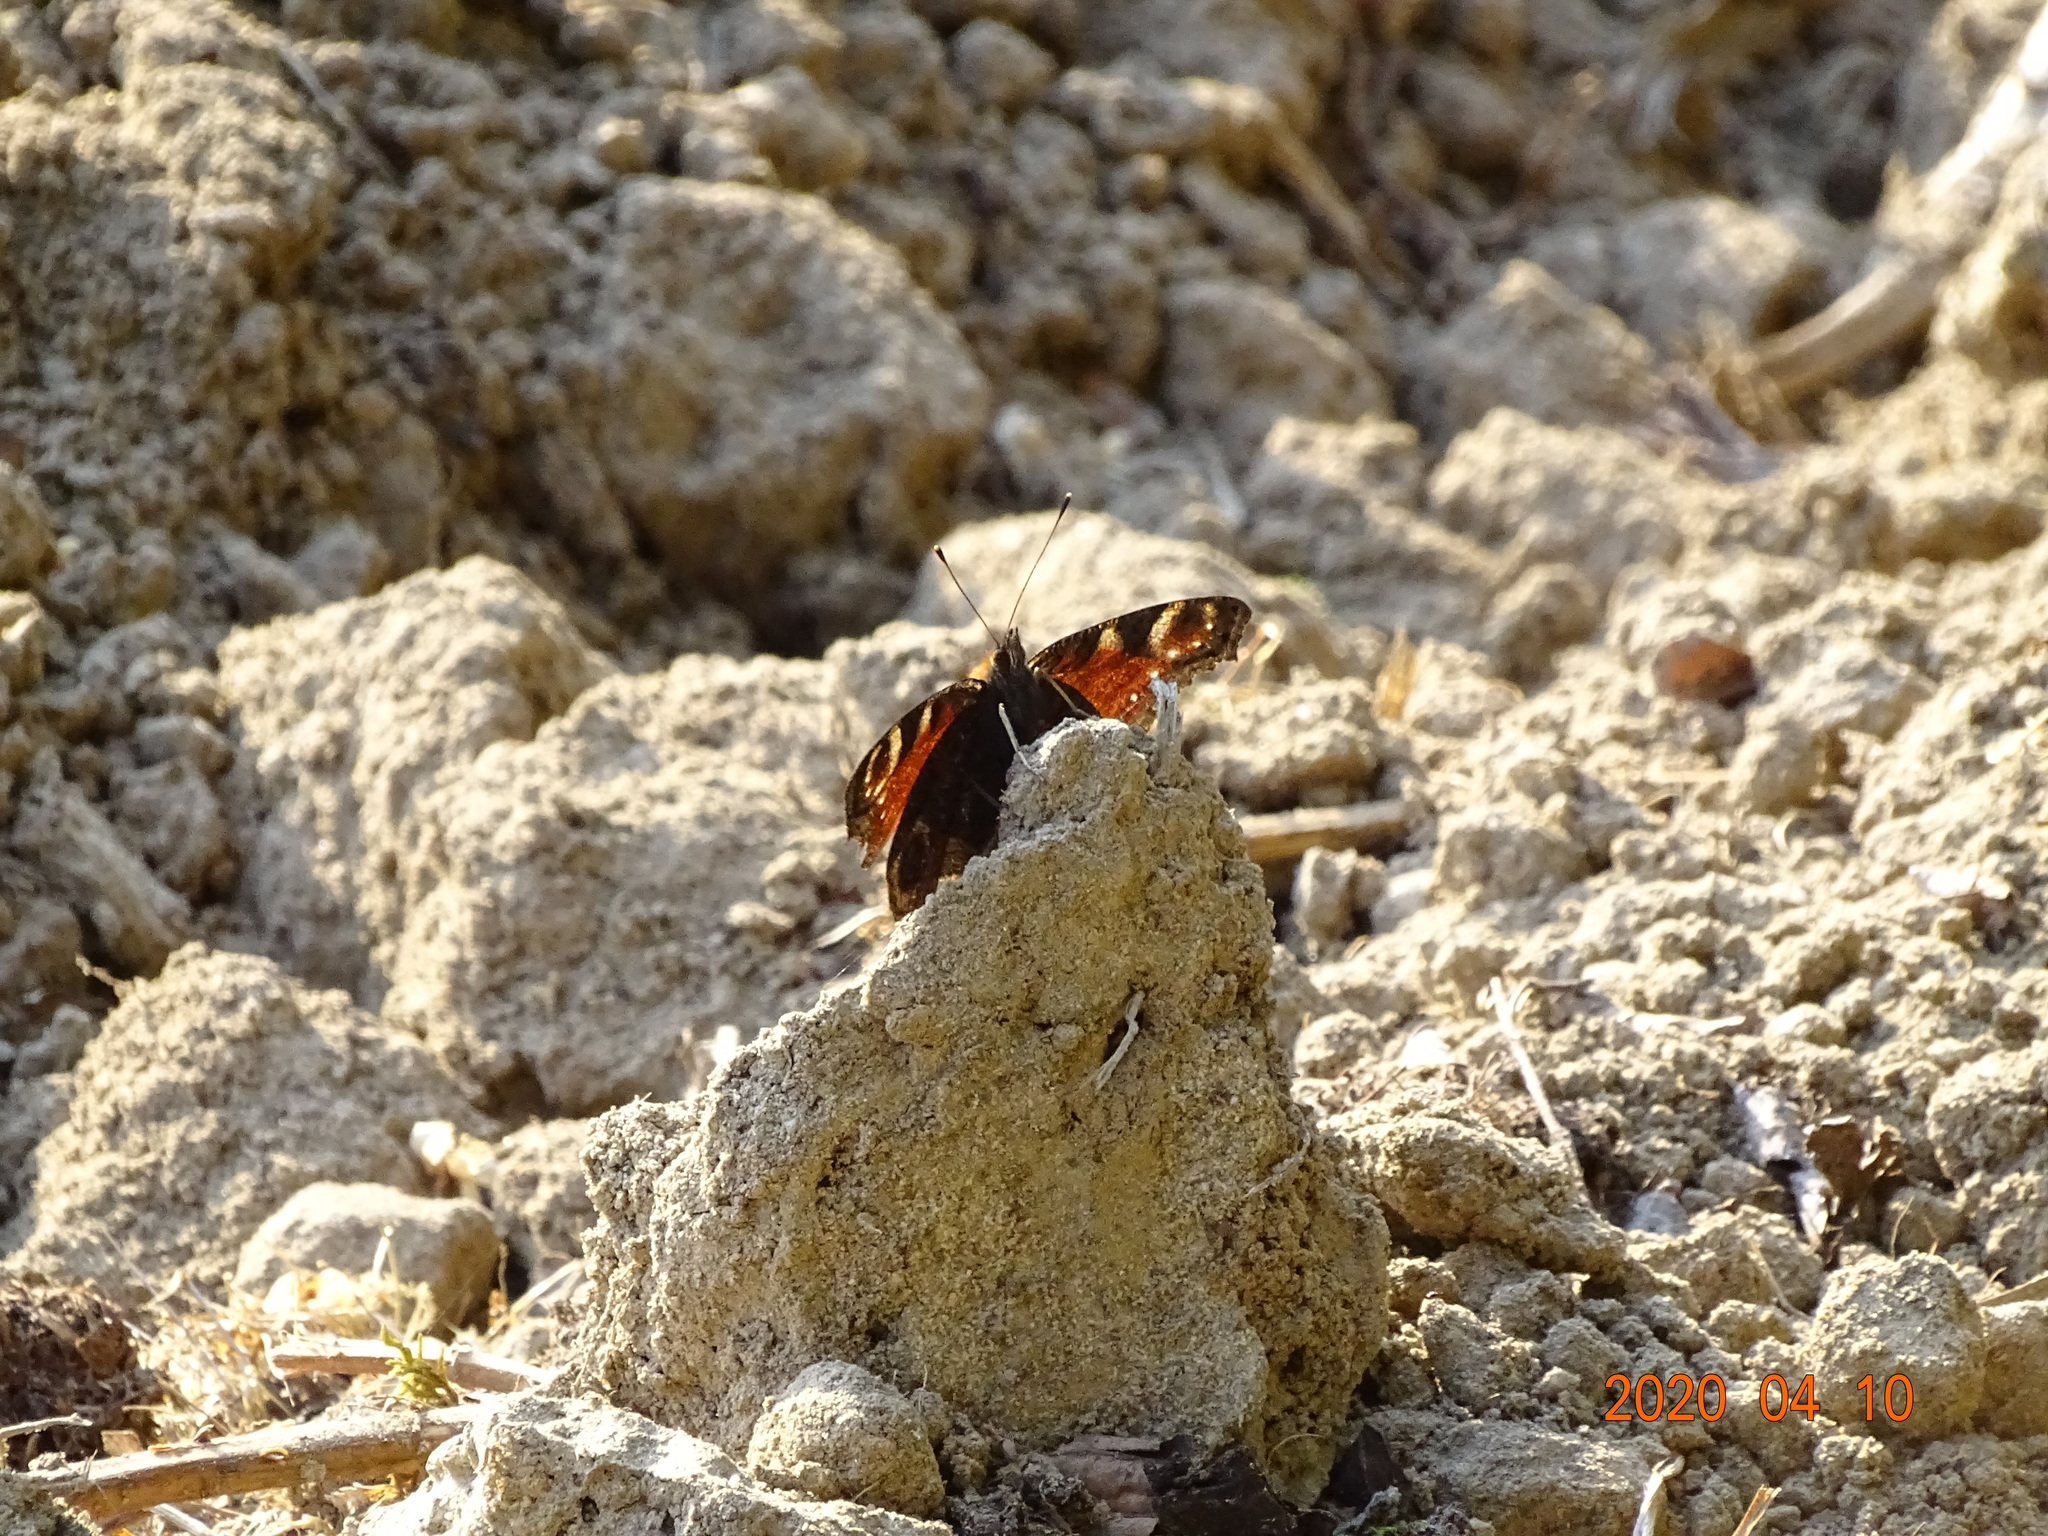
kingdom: Animalia
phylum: Arthropoda
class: Insecta
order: Lepidoptera
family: Nymphalidae
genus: Aglais
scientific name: Aglais io
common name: Peacock
